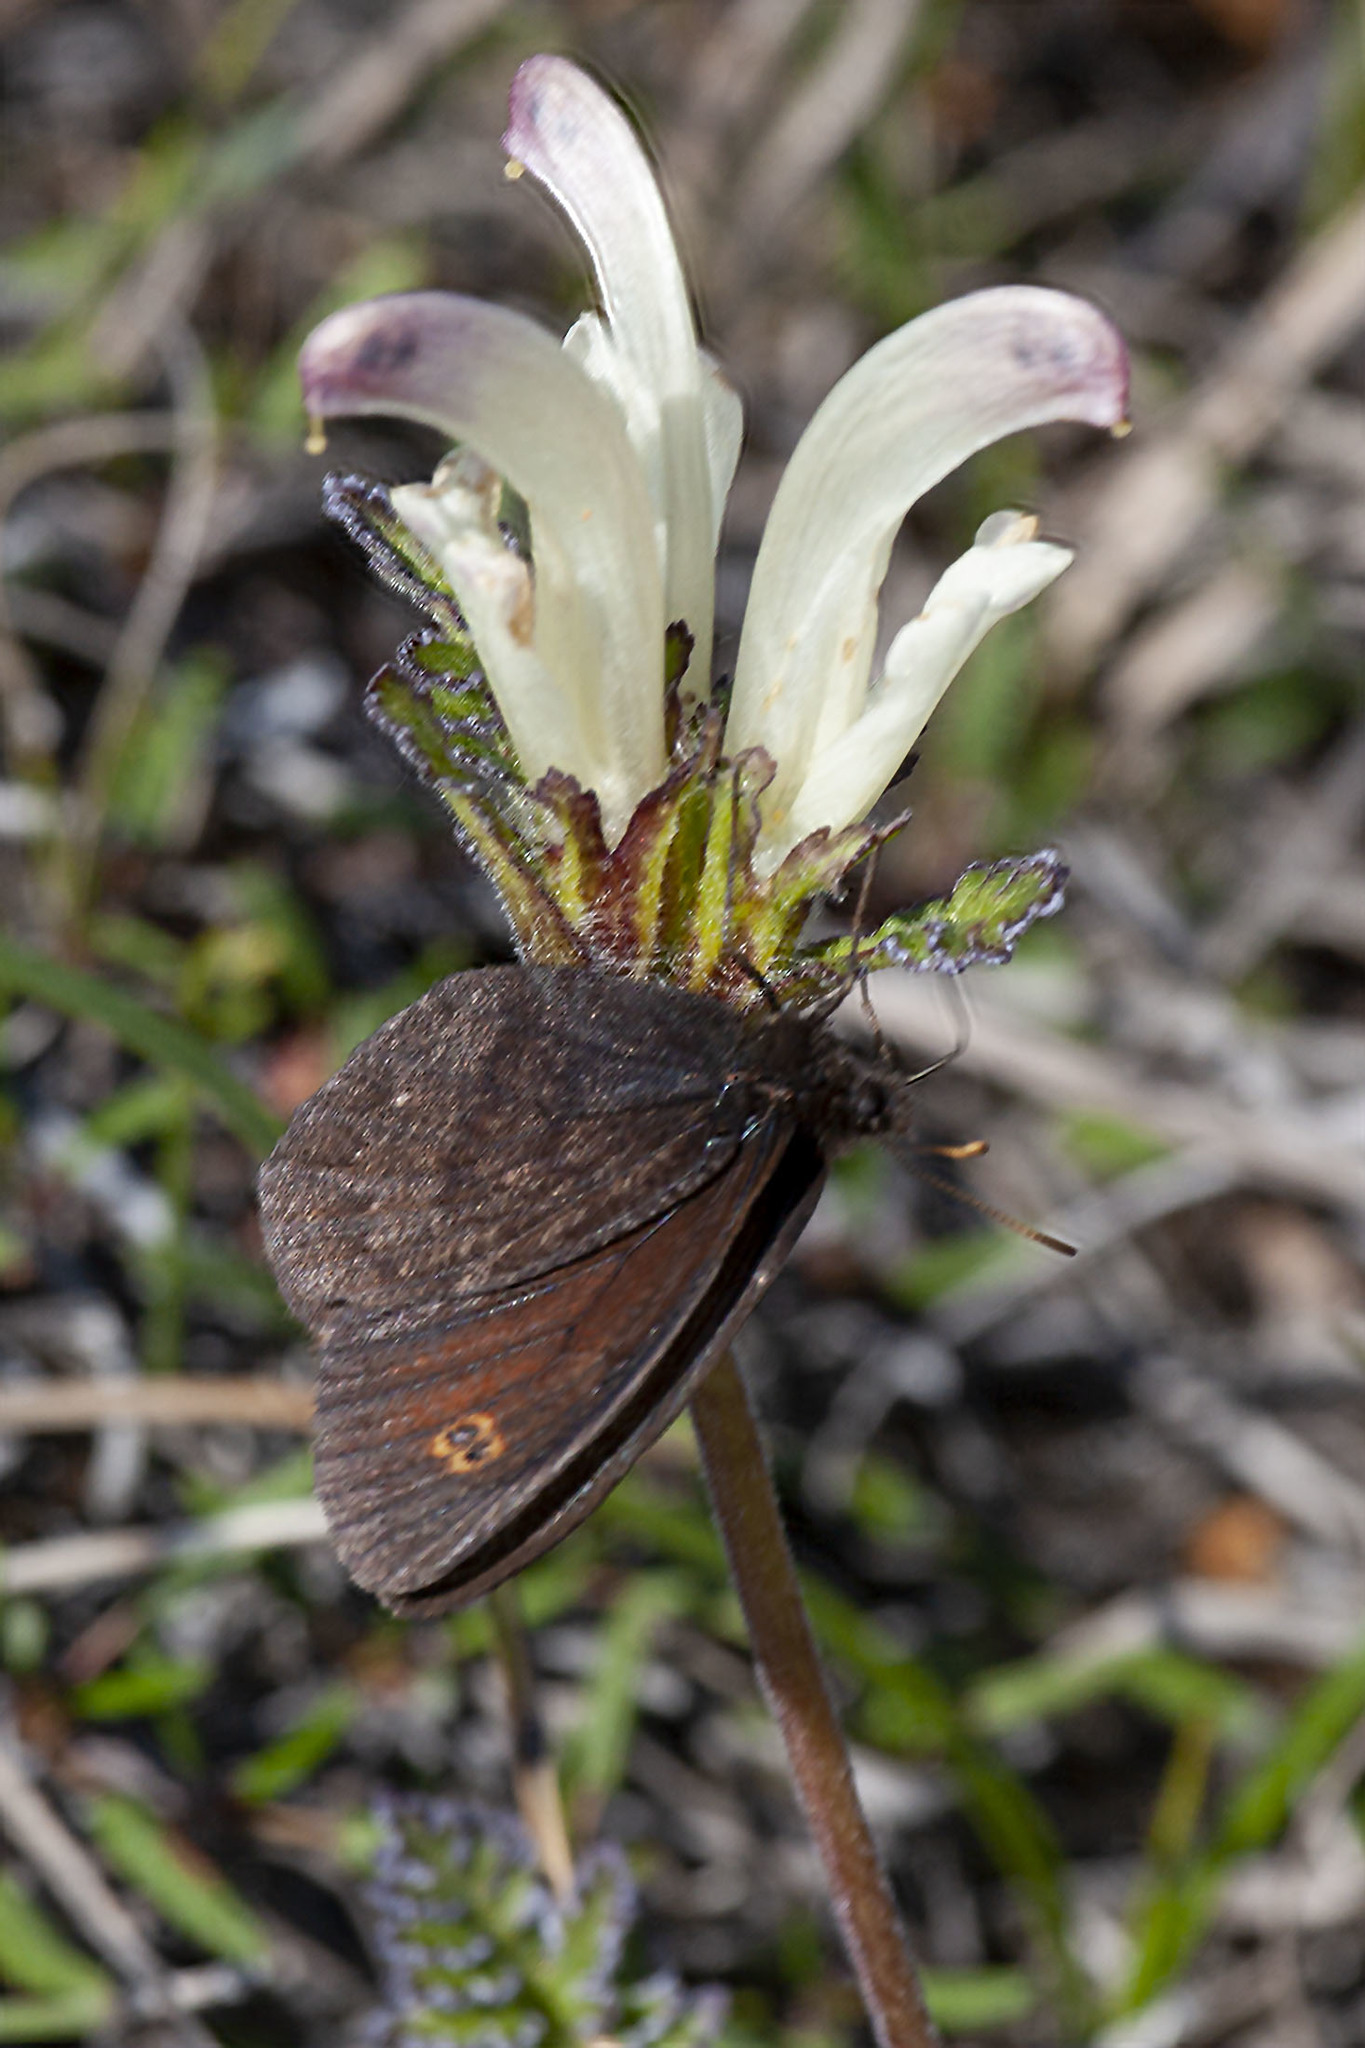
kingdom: Plantae
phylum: Tracheophyta
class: Magnoliopsida
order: Lamiales
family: Orobanchaceae
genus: Pedicularis
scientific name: Pedicularis capitata
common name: Capitate lousewort
